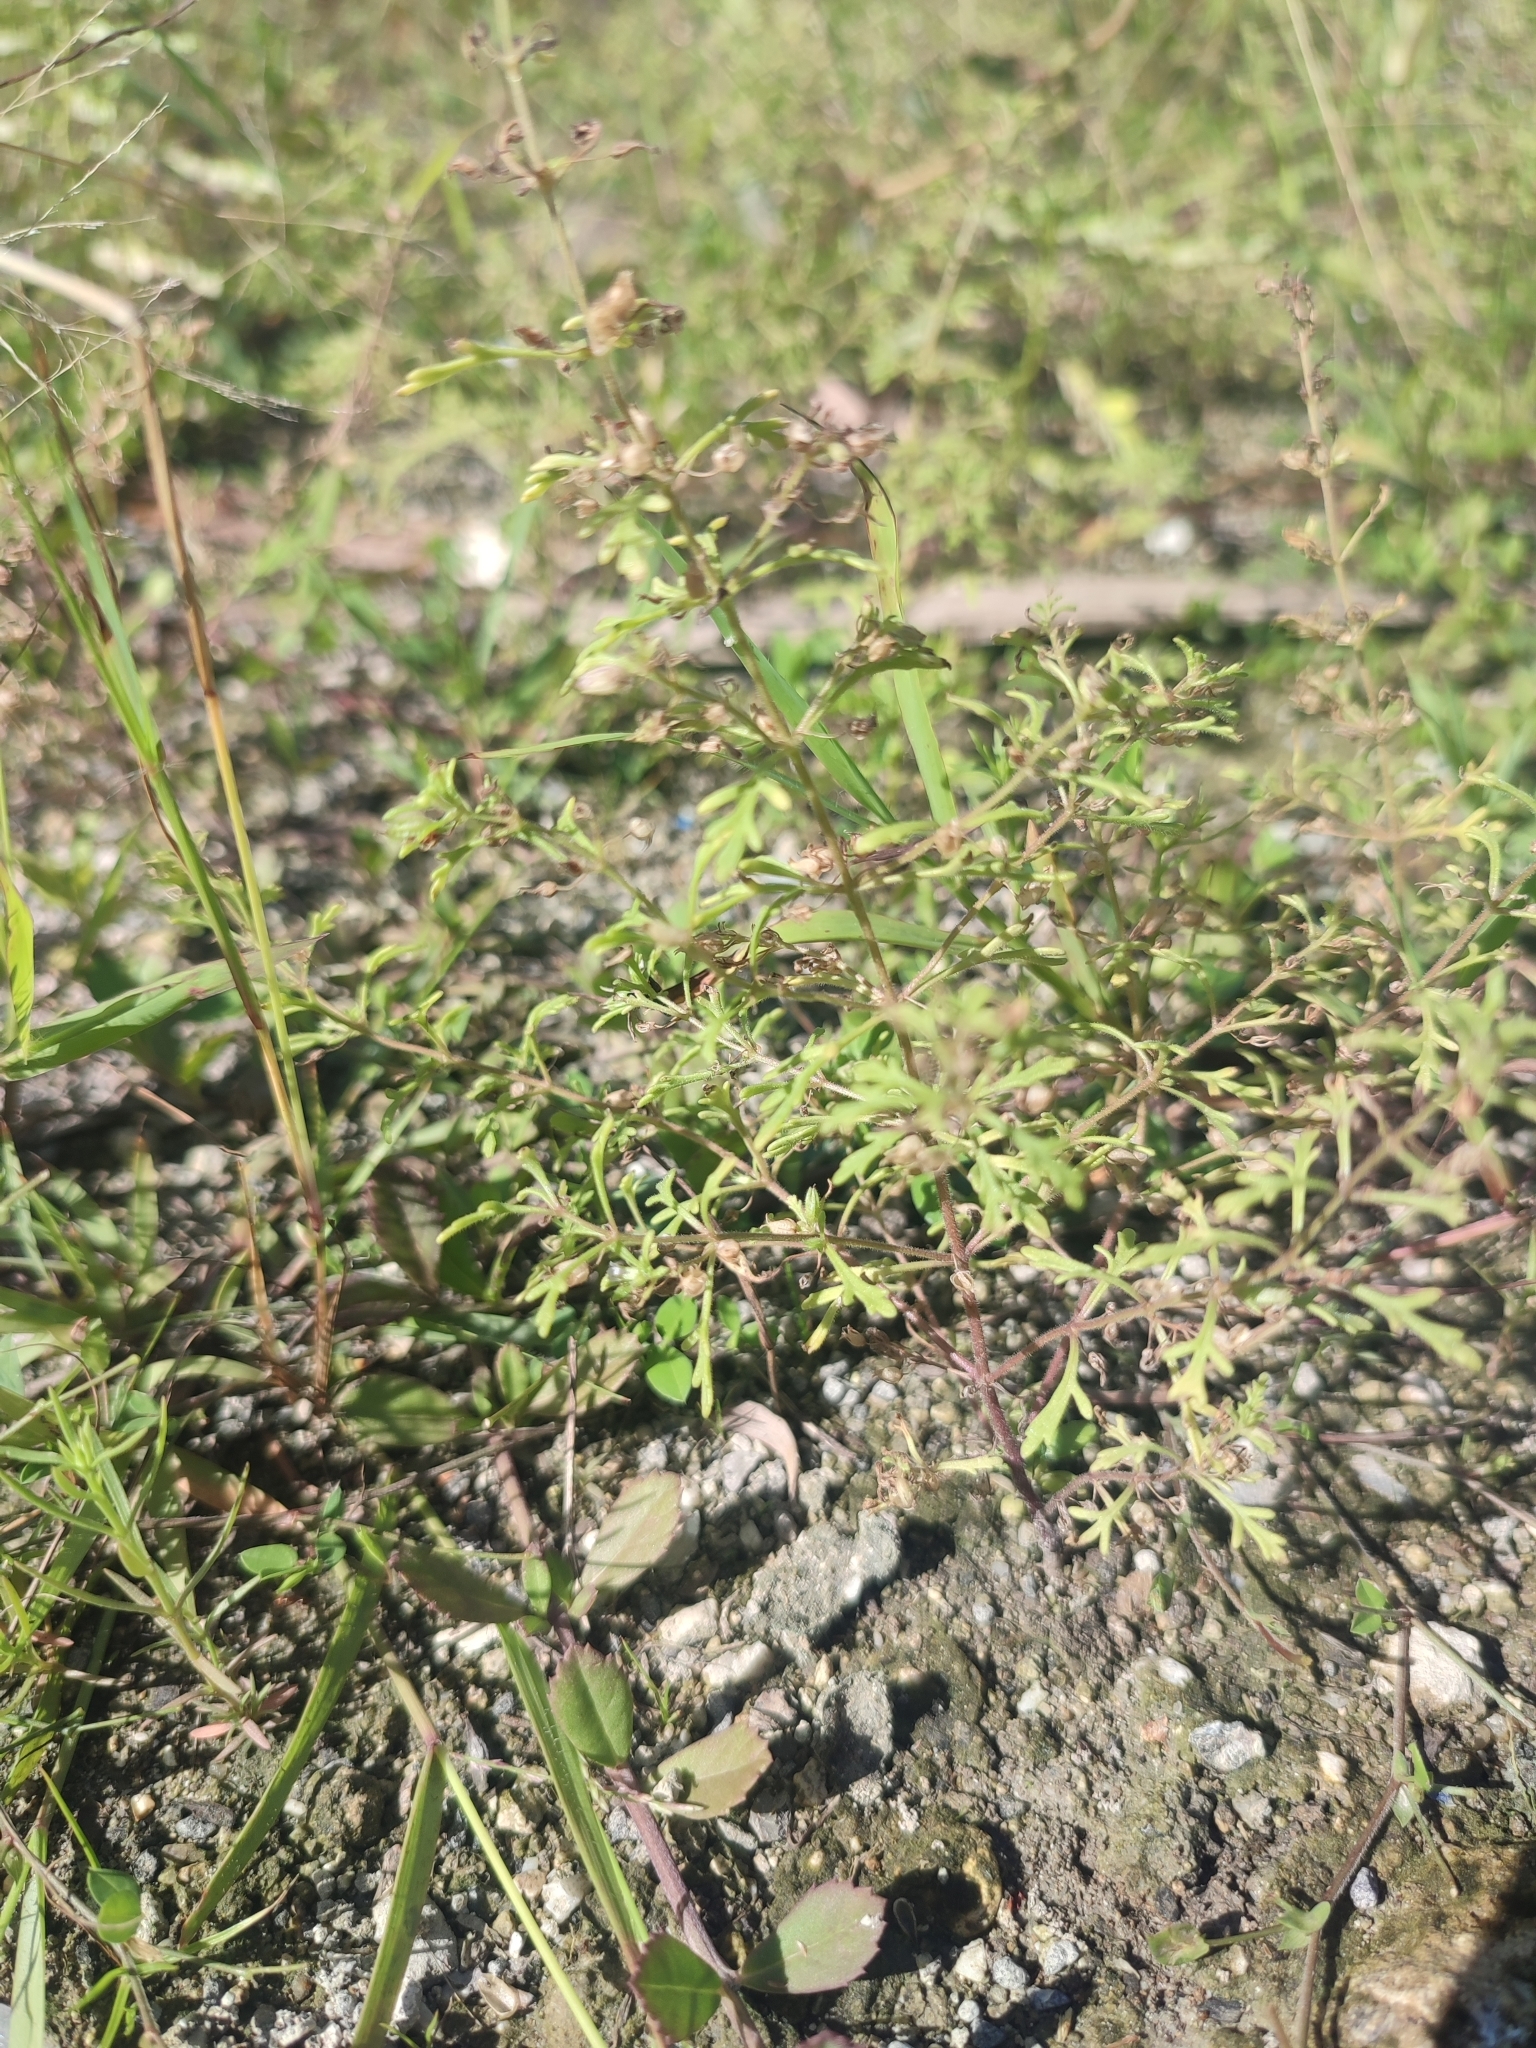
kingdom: Plantae
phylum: Tracheophyta
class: Magnoliopsida
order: Lamiales
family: Plantaginaceae
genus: Leucospora
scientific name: Leucospora multifida
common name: Narrow-leaf paleseed
